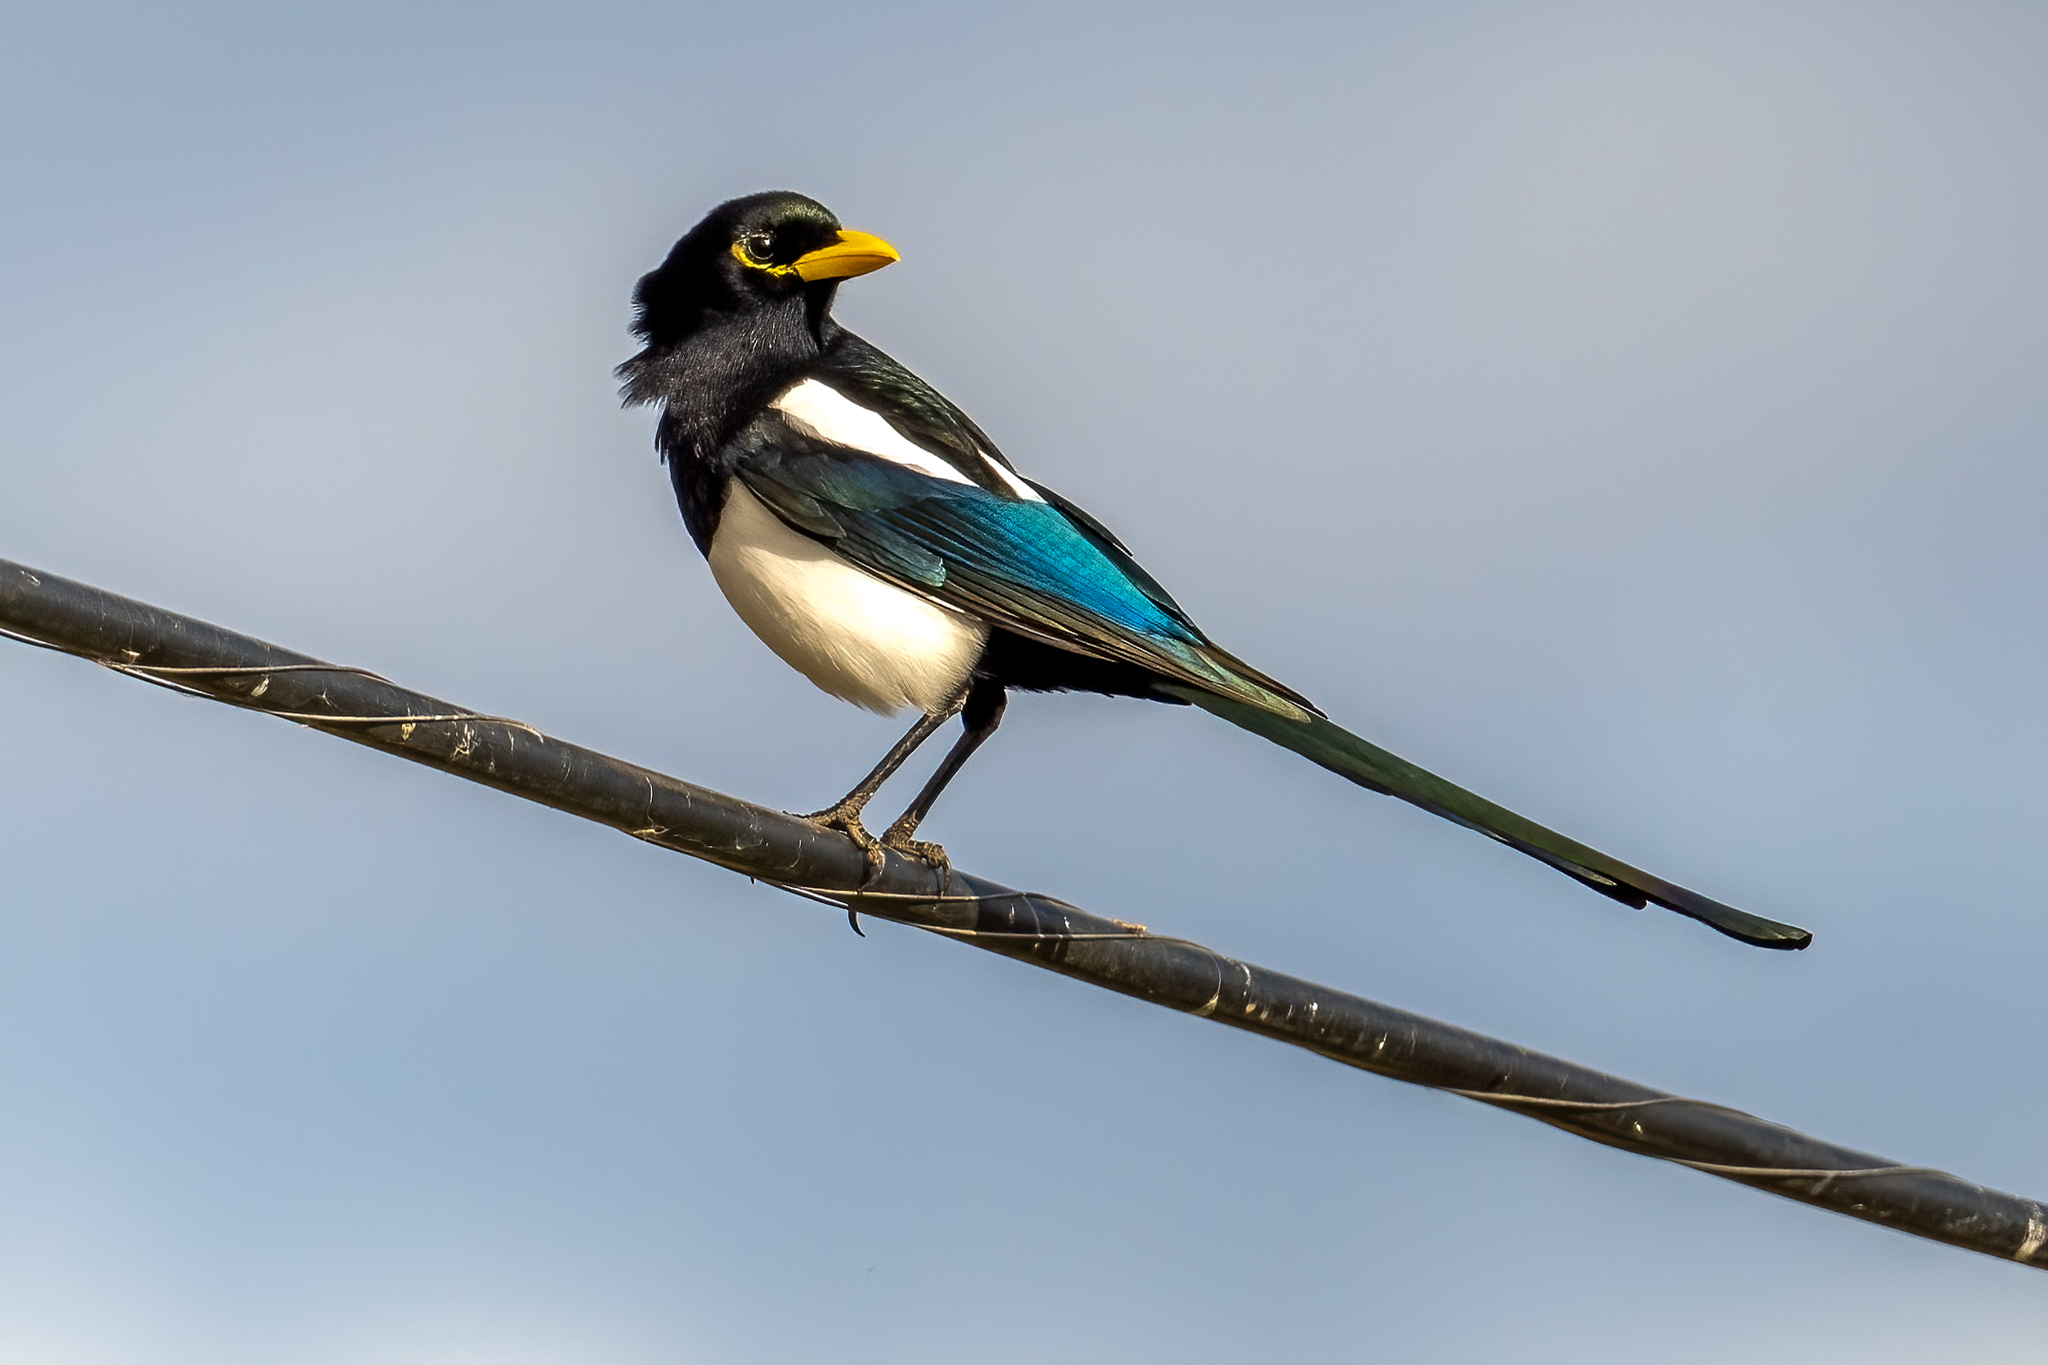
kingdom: Animalia
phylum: Chordata
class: Aves
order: Passeriformes
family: Corvidae
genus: Pica
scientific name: Pica nuttalli
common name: Yellow-billed magpie
